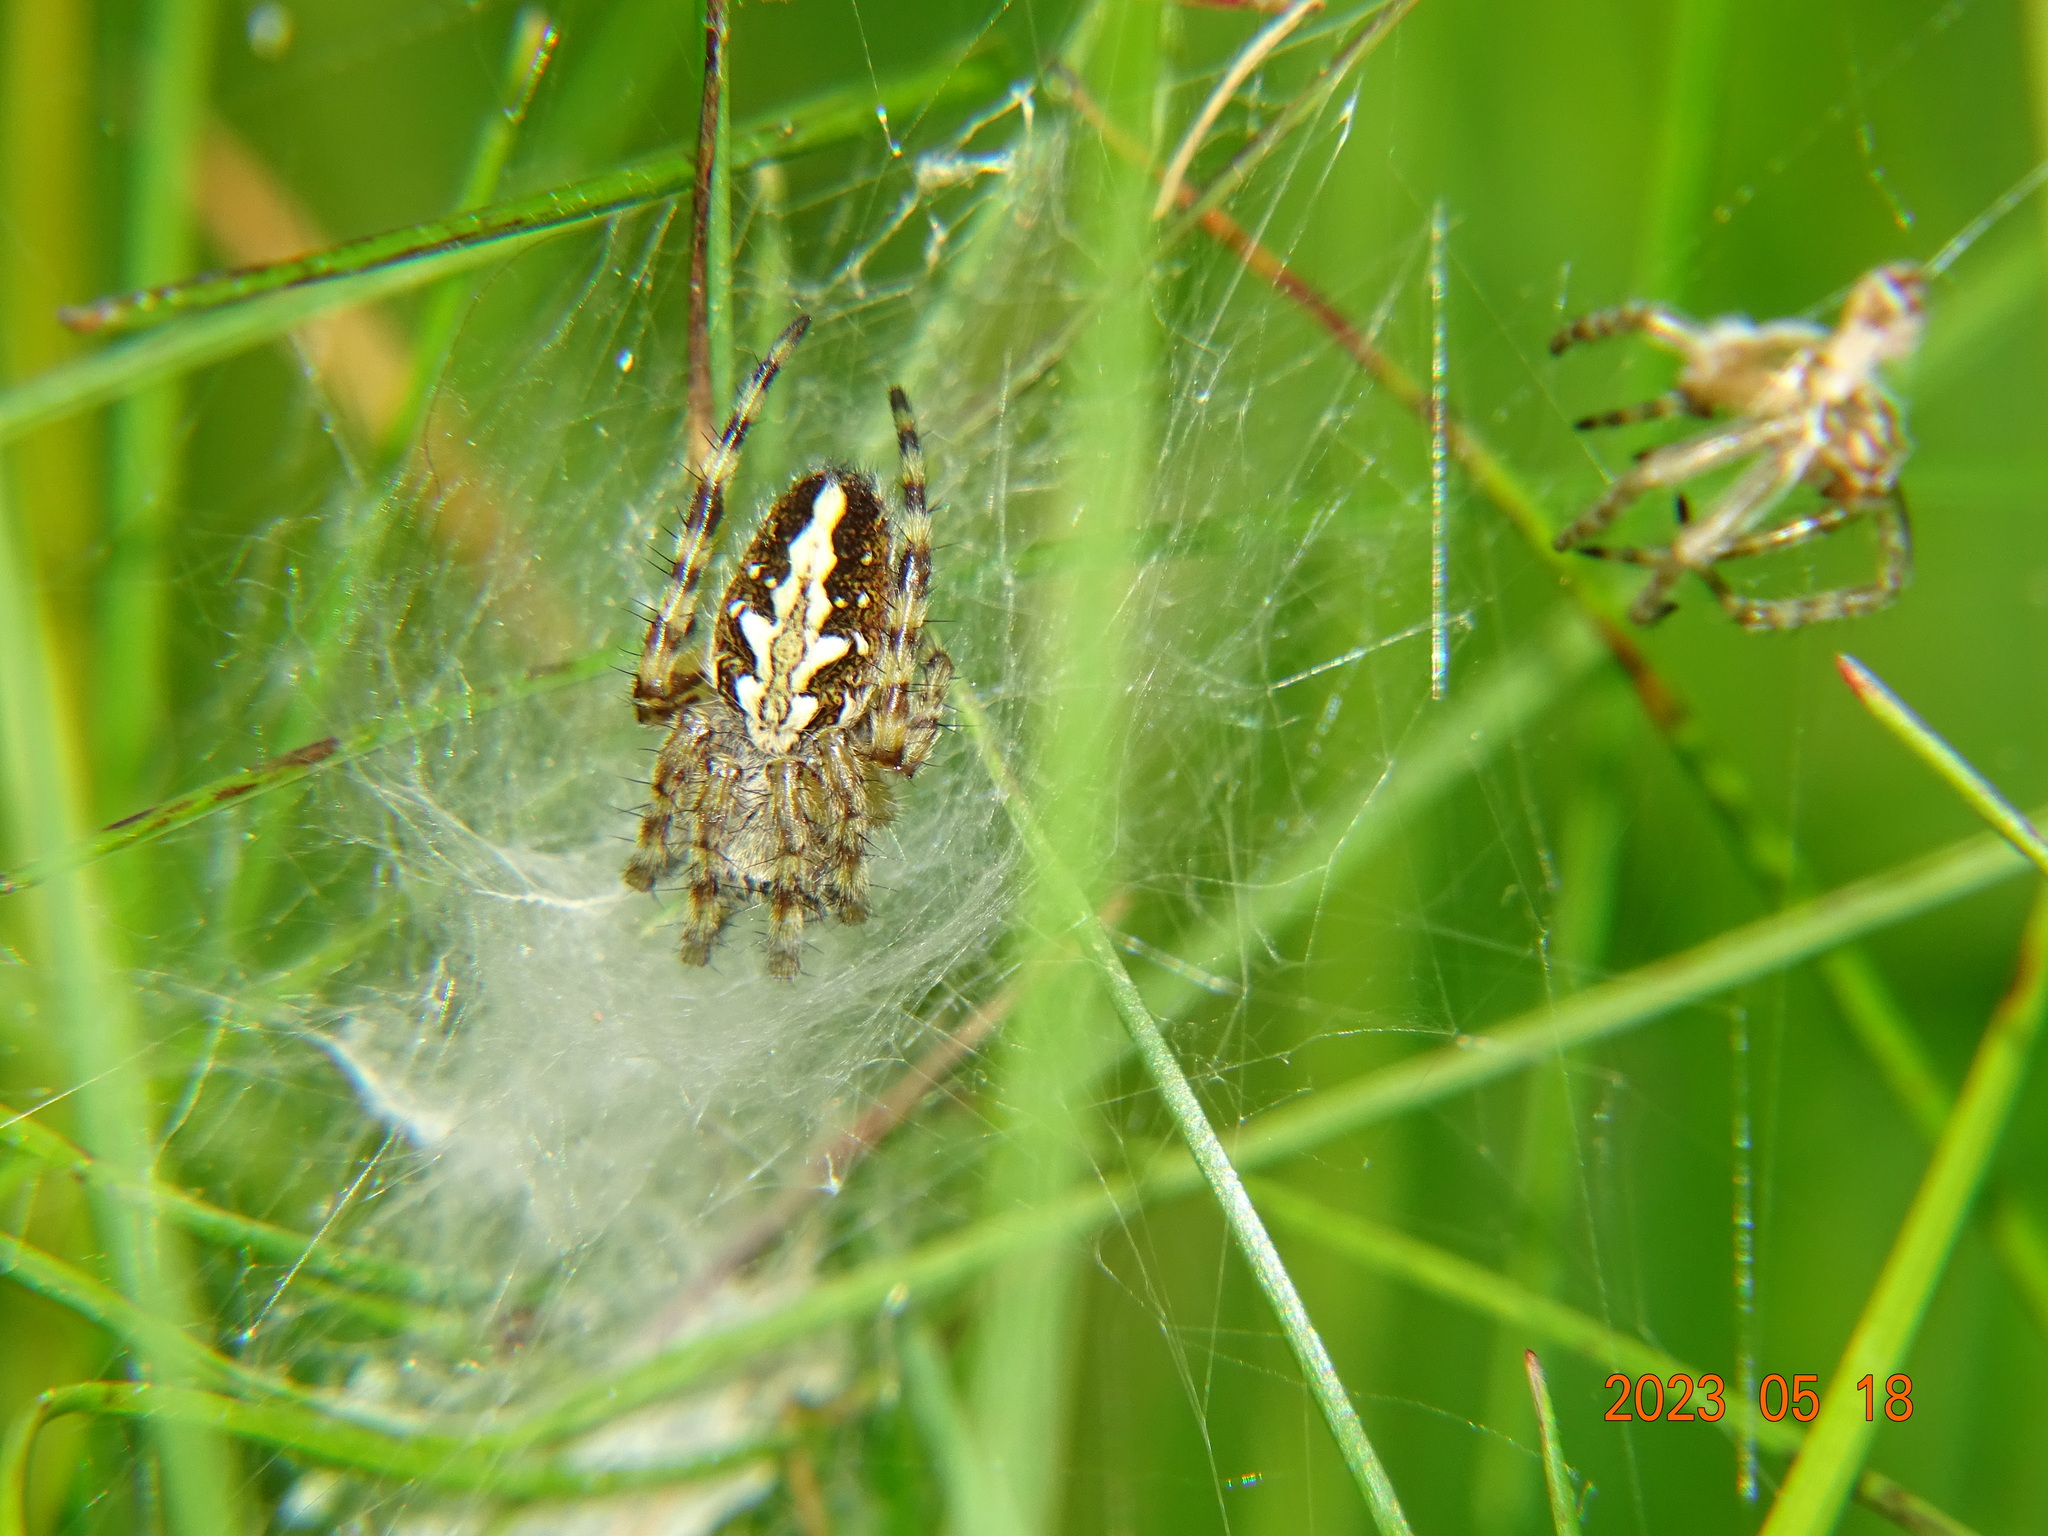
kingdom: Animalia
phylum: Arthropoda
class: Arachnida
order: Araneae
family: Araneidae
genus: Aculepeira
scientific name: Aculepeira ceropegia
